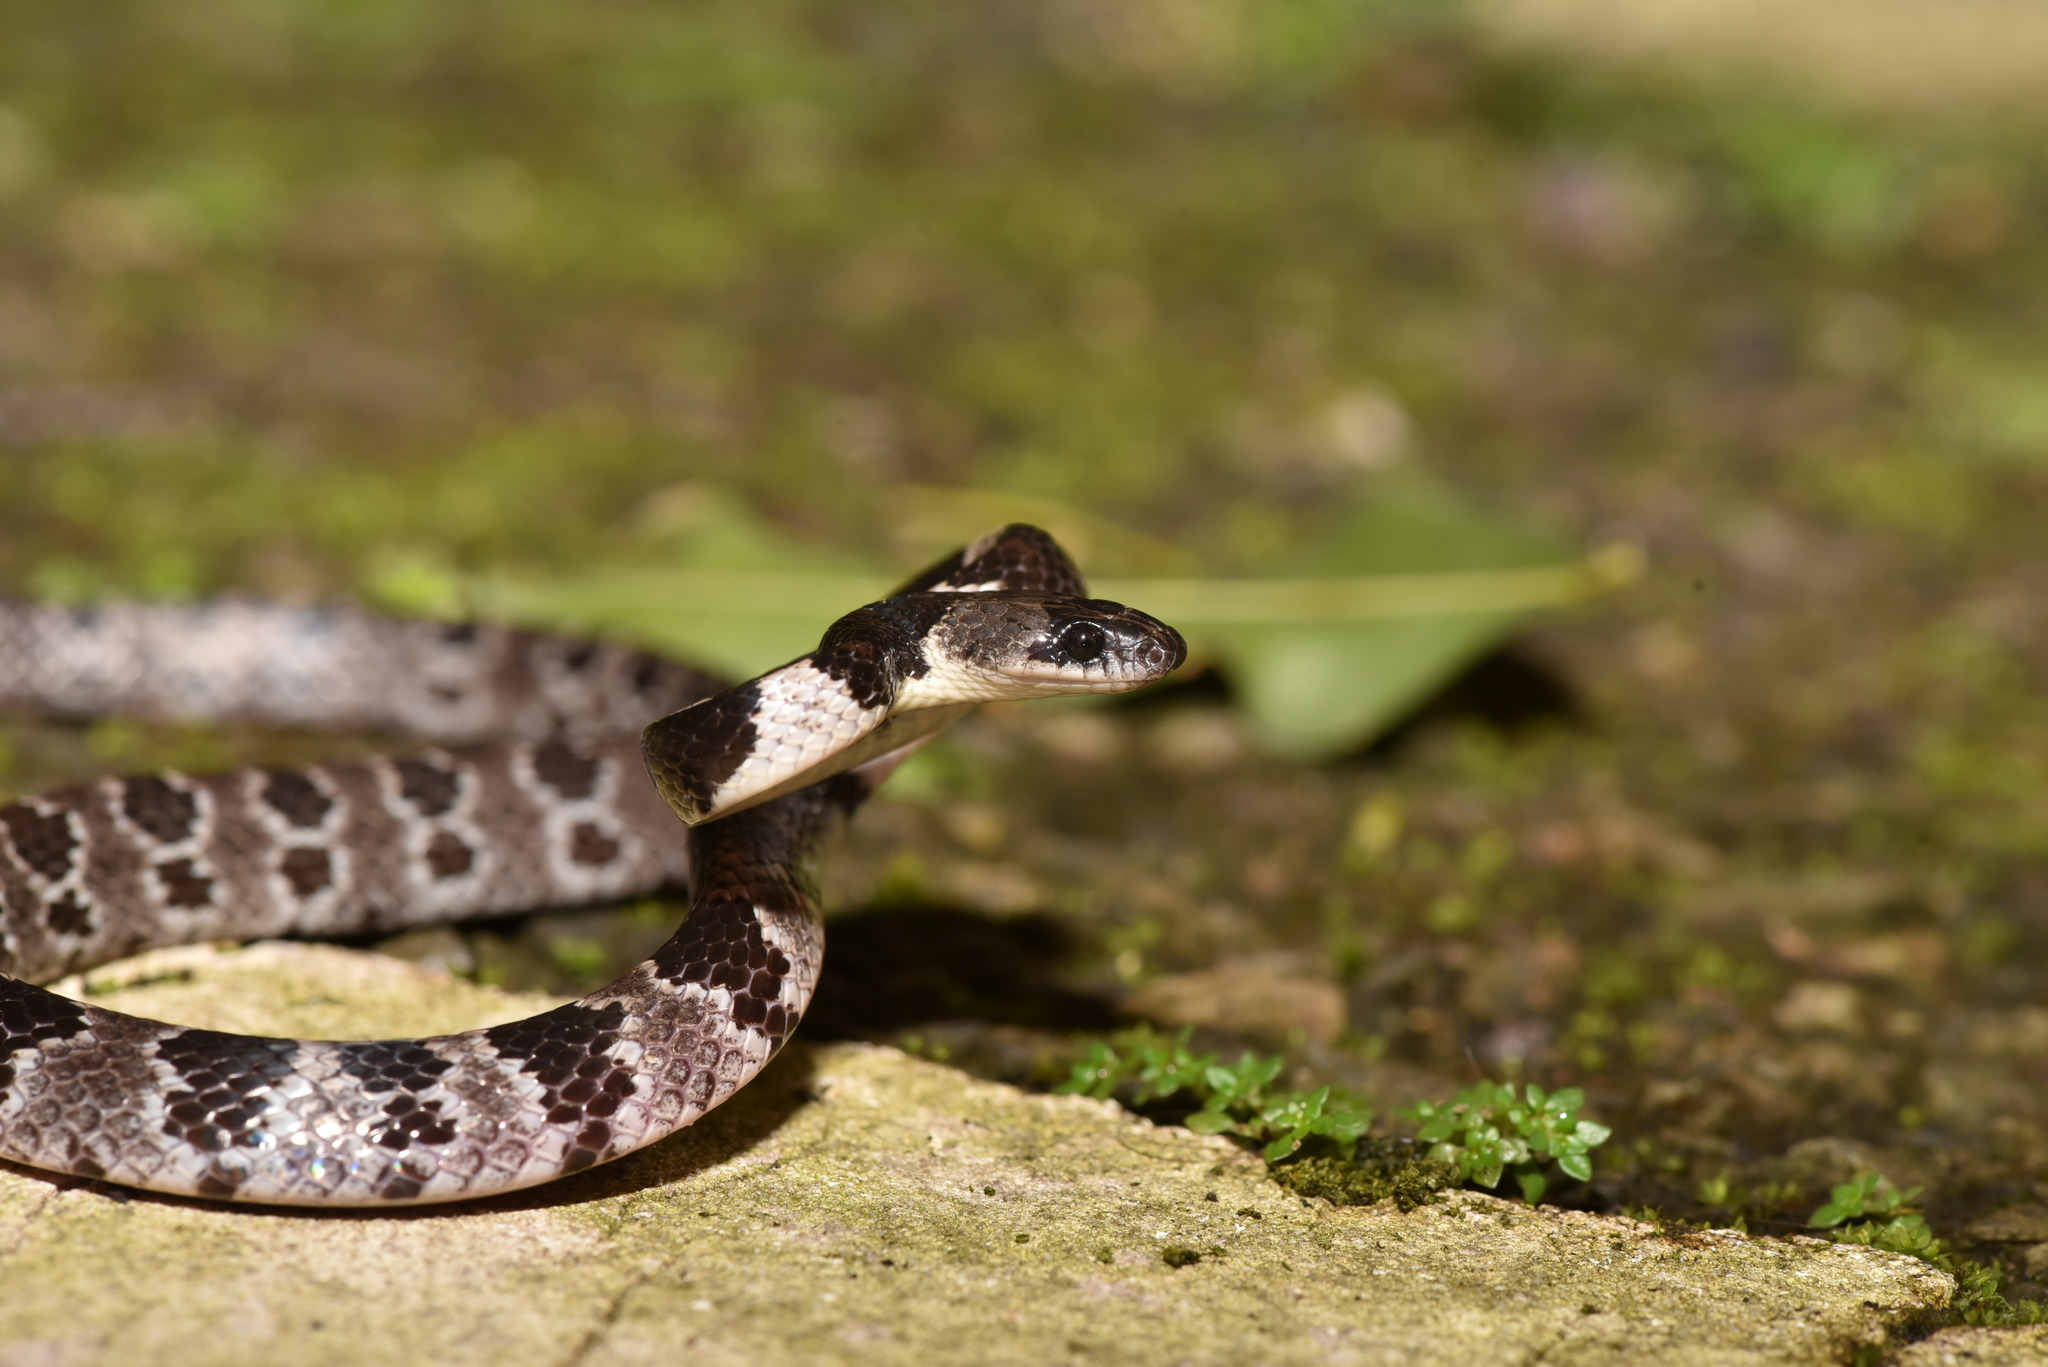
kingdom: Animalia
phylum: Chordata
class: Squamata
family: Colubridae
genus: Lycodon
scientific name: Lycodon ruhstrati
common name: Rushstrat's wolf snake
